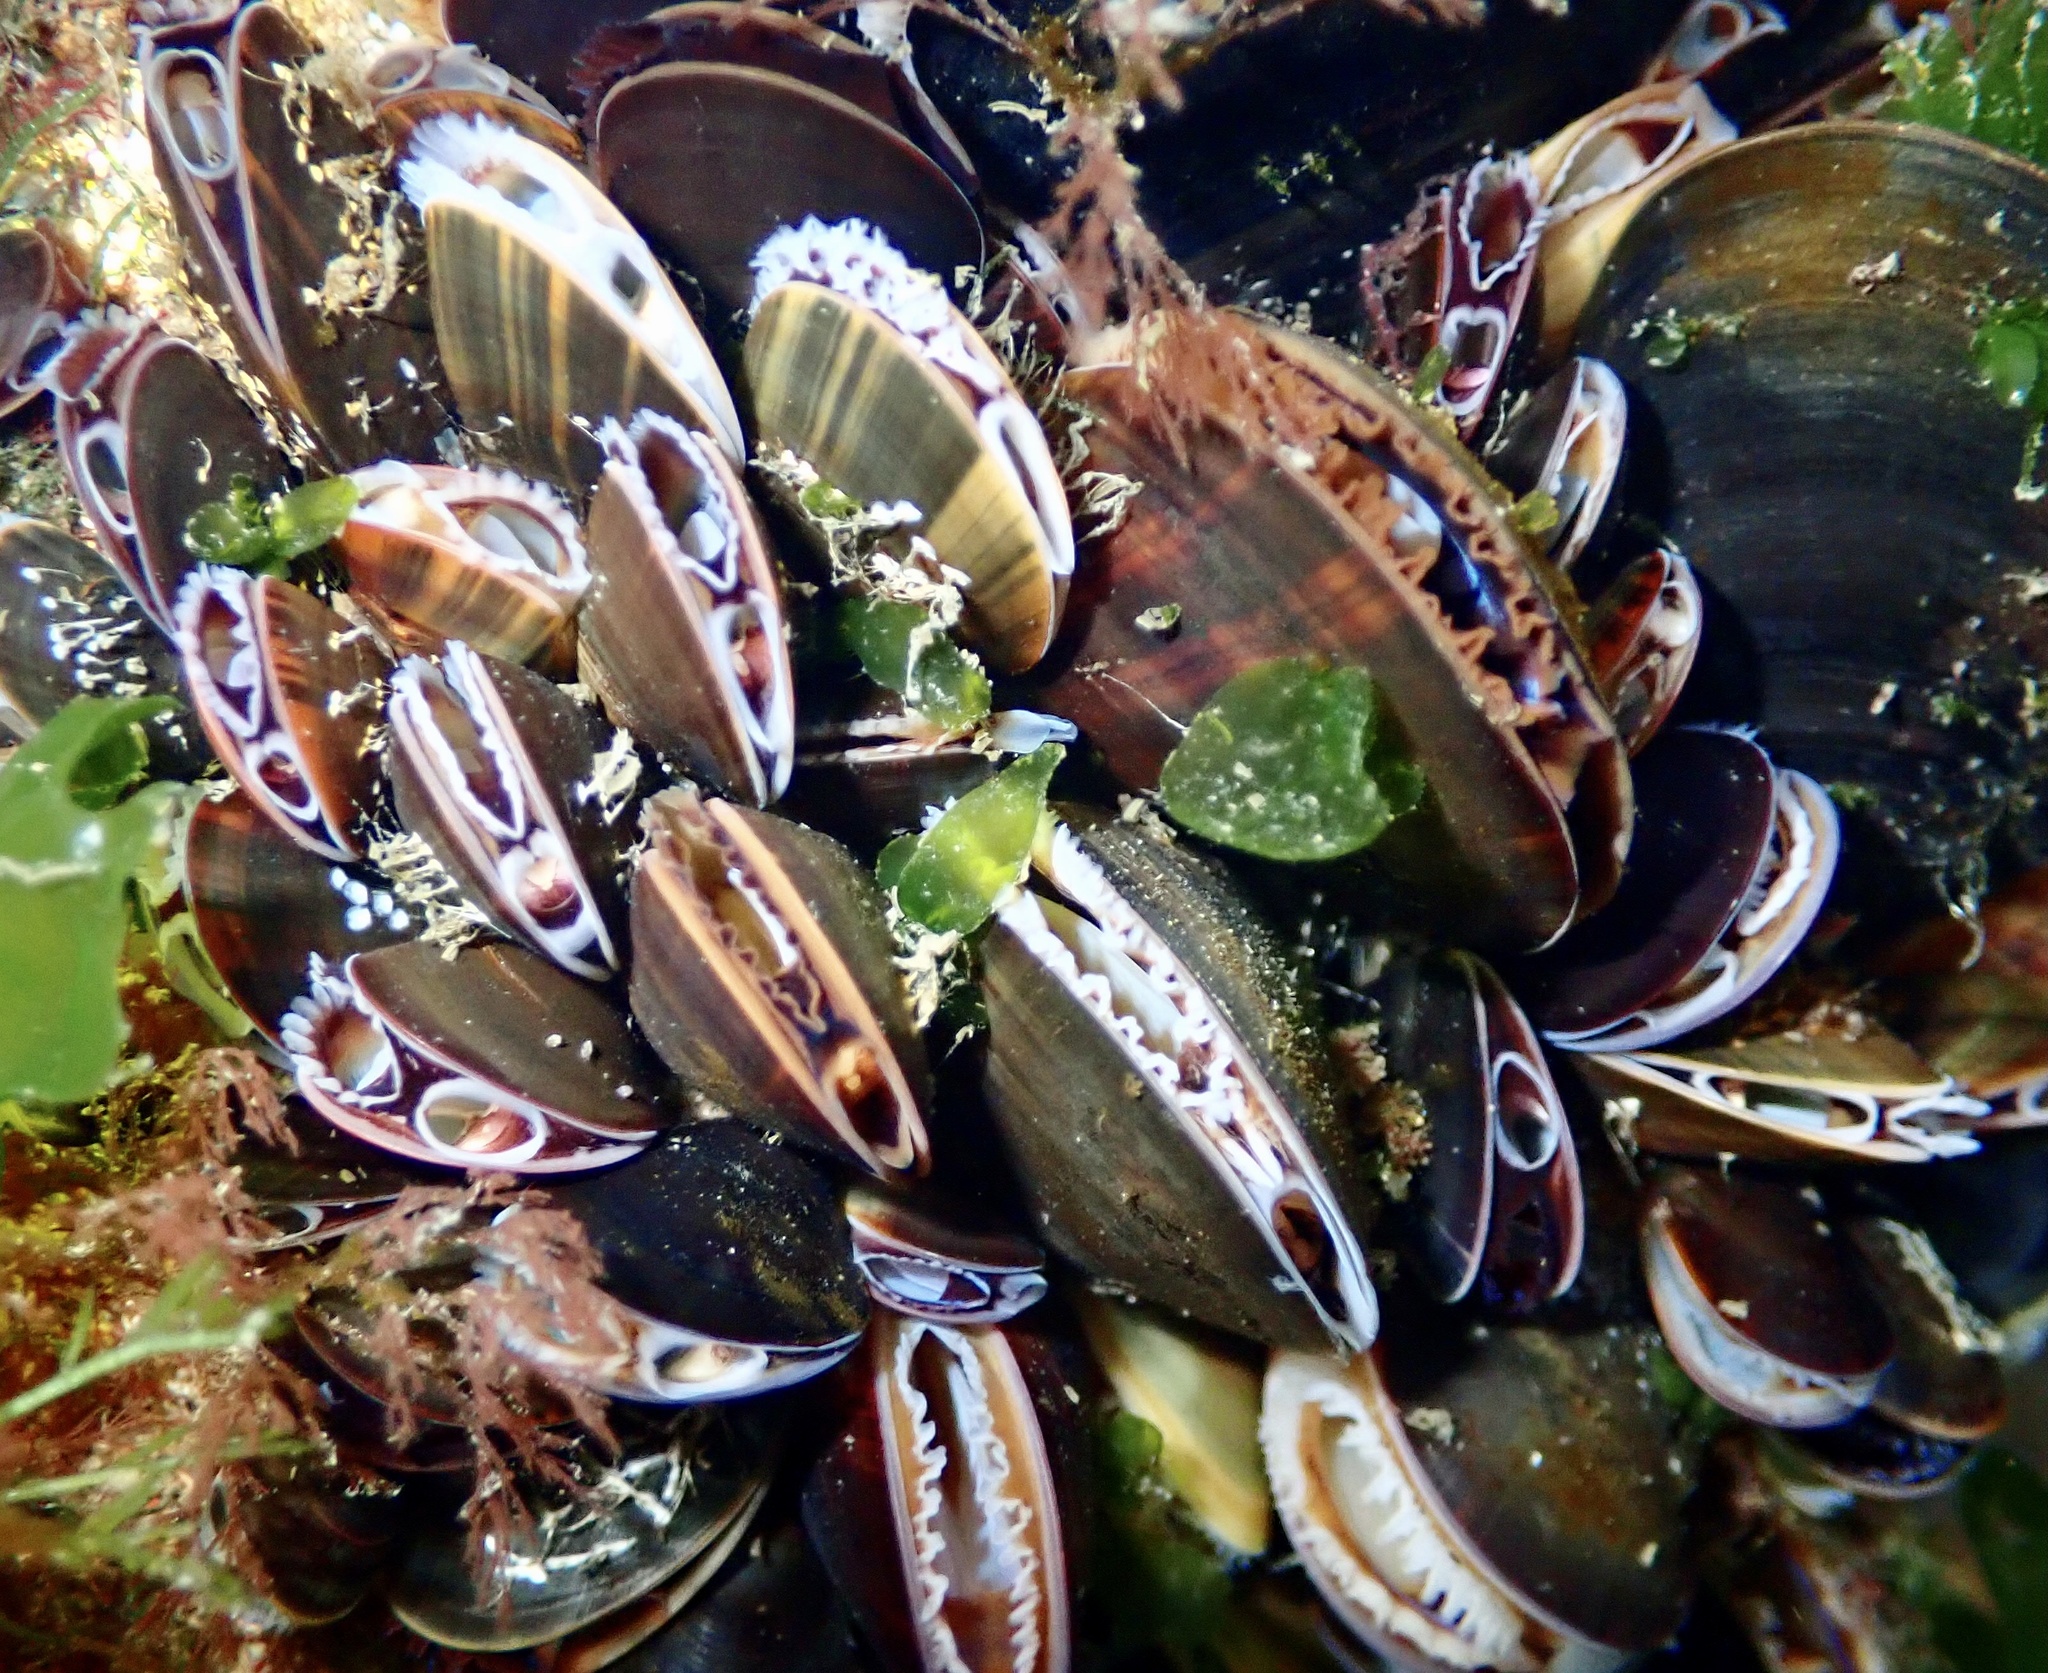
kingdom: Animalia
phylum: Mollusca
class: Bivalvia
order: Mytilida
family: Mytilidae
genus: Mytilus
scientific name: Mytilus edulis
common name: Blue mussel
